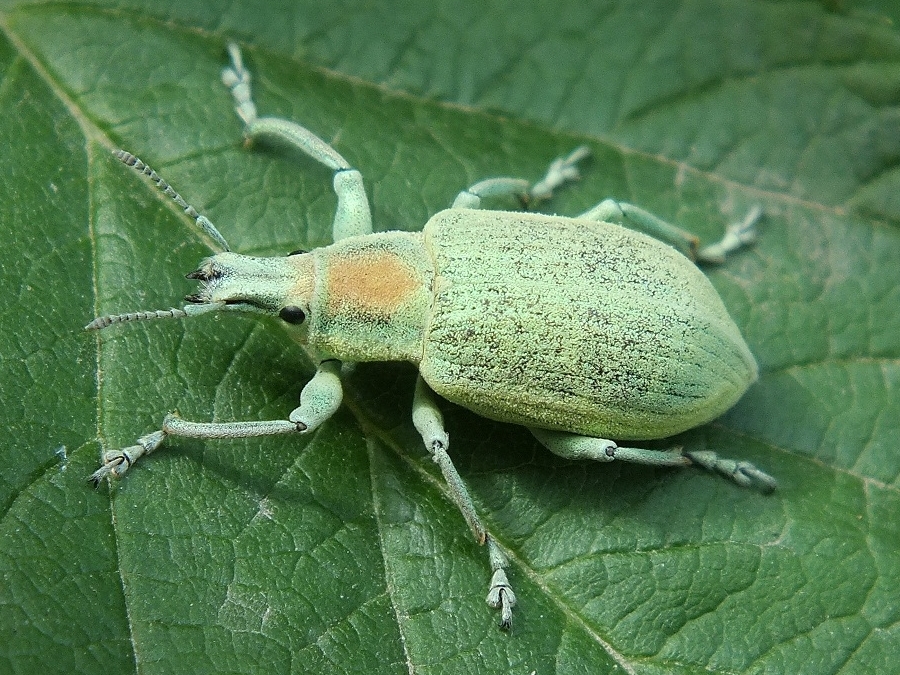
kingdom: Animalia
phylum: Arthropoda
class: Insecta
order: Coleoptera
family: Curculionidae
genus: Chlorophanus
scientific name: Chlorophanus micans
